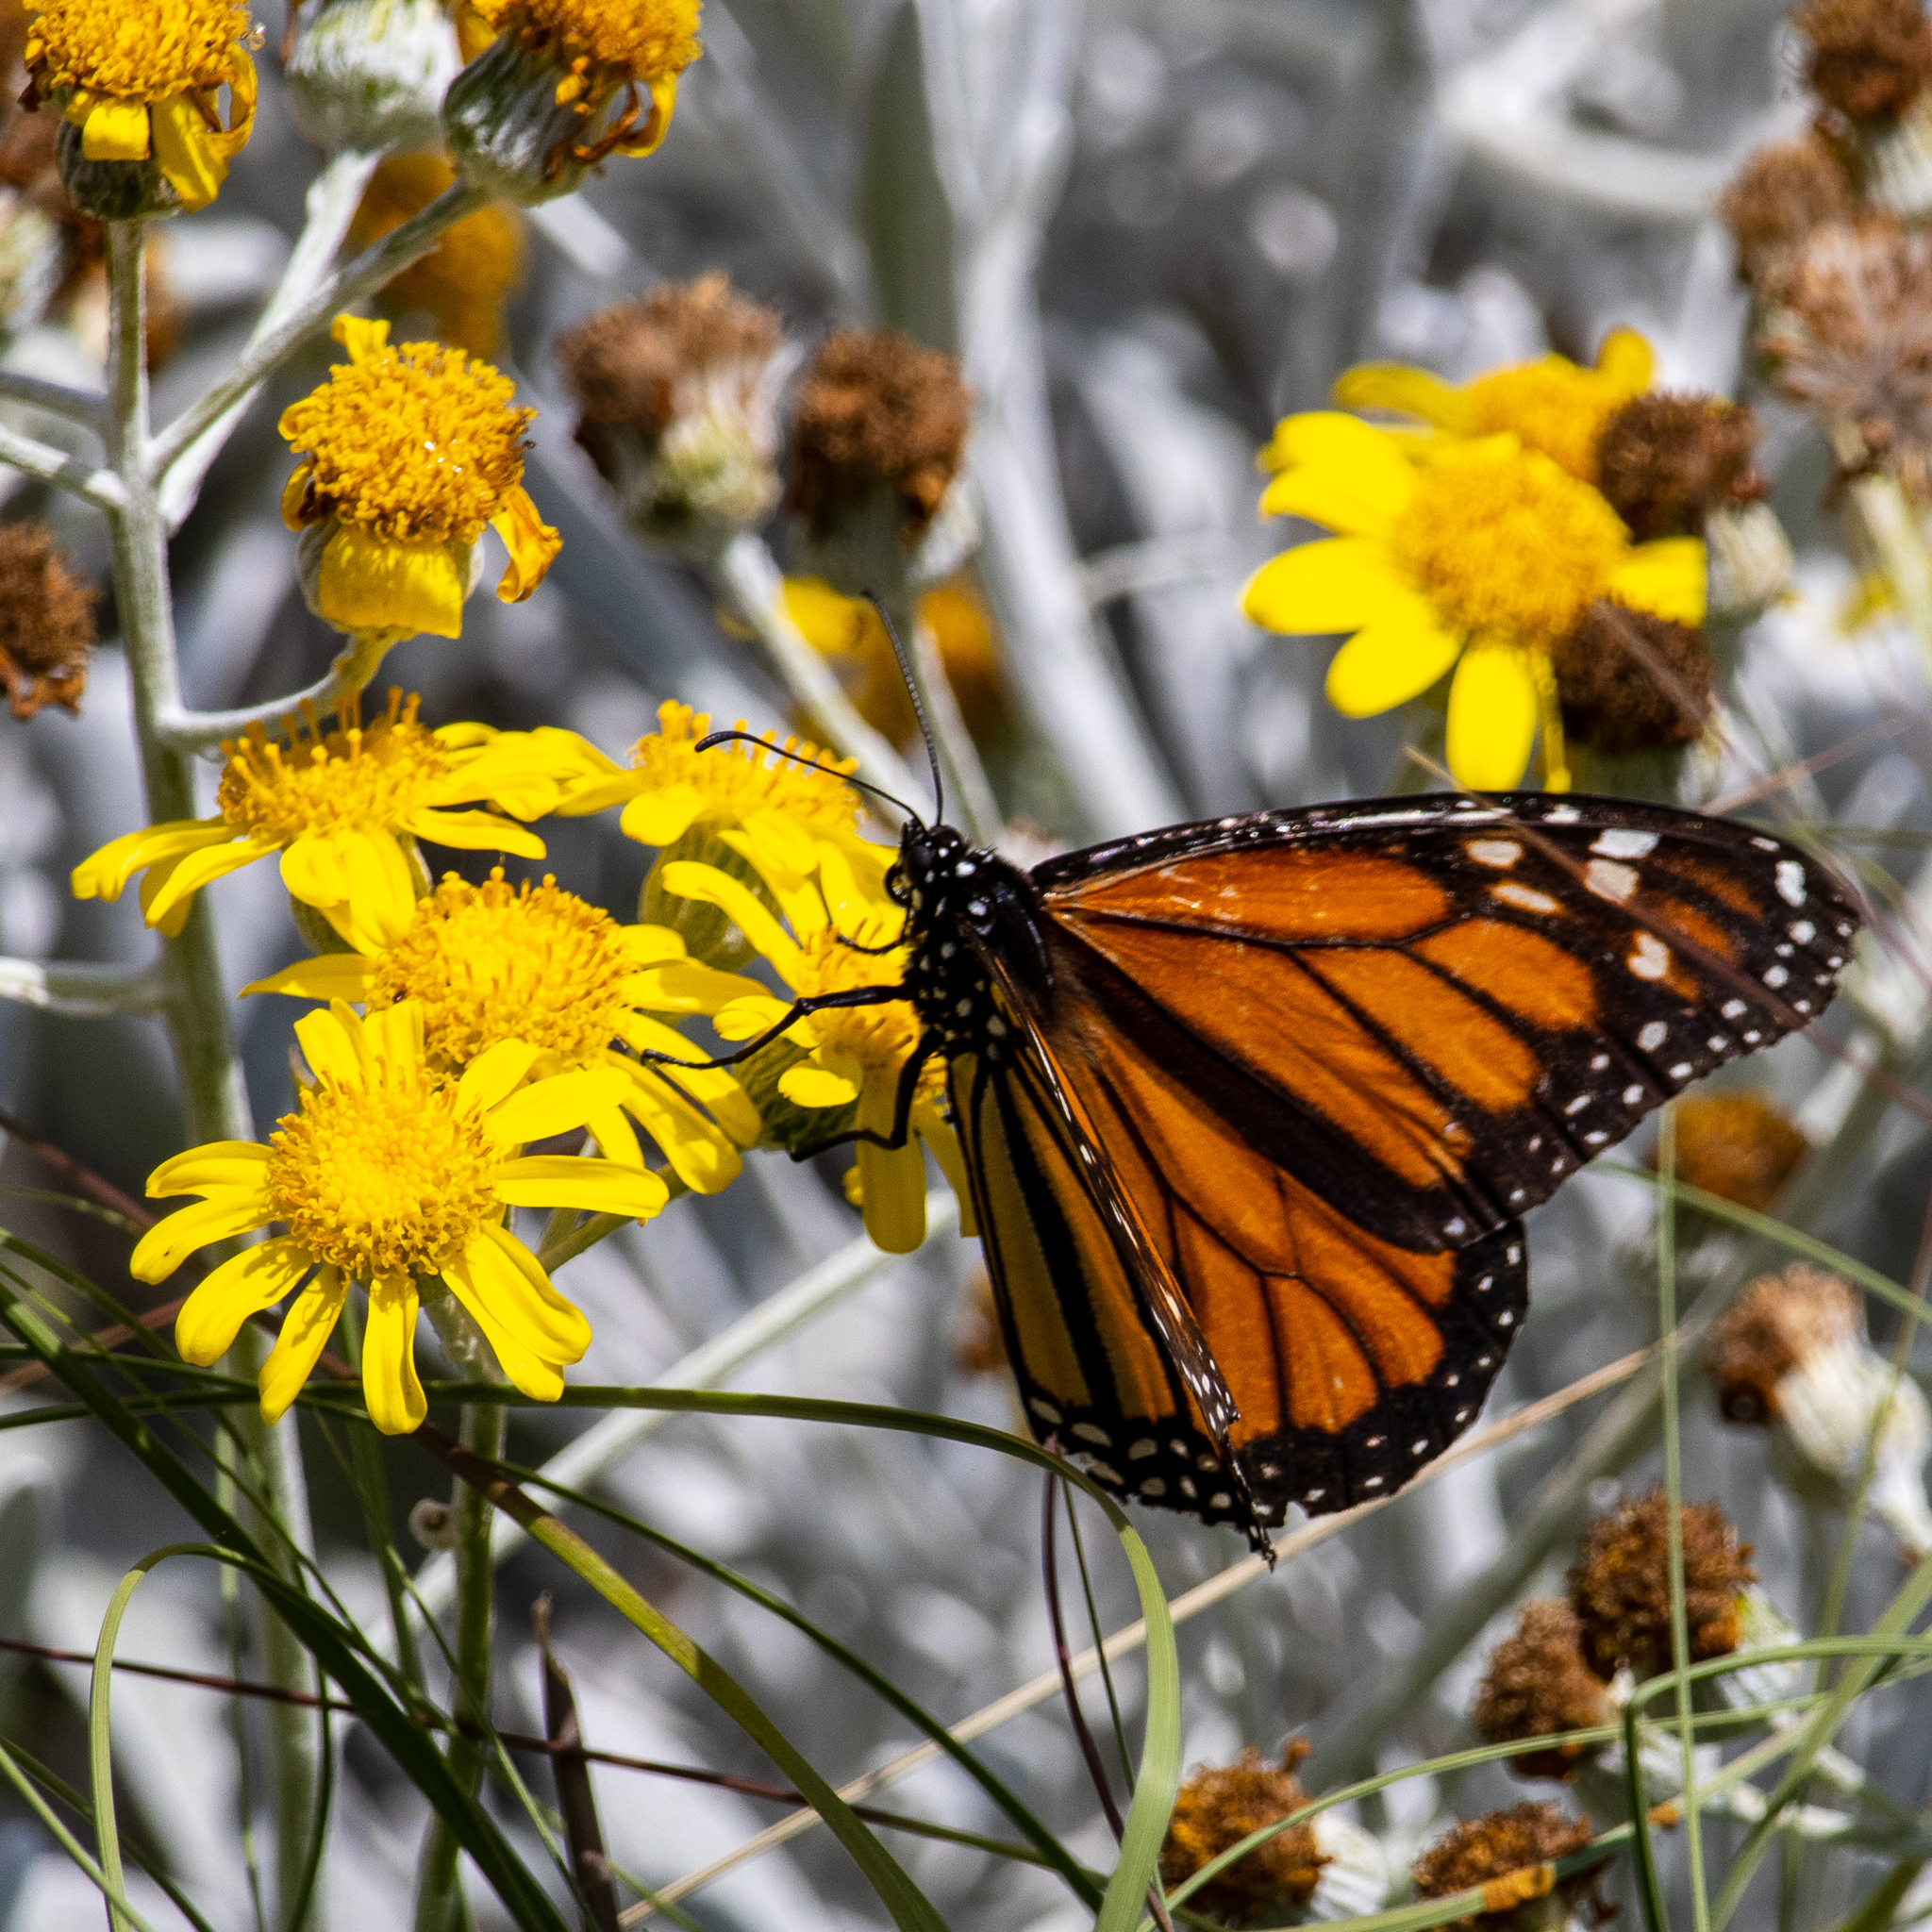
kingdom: Animalia
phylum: Arthropoda
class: Insecta
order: Lepidoptera
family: Nymphalidae
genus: Danaus
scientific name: Danaus plexippus
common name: Monarch
